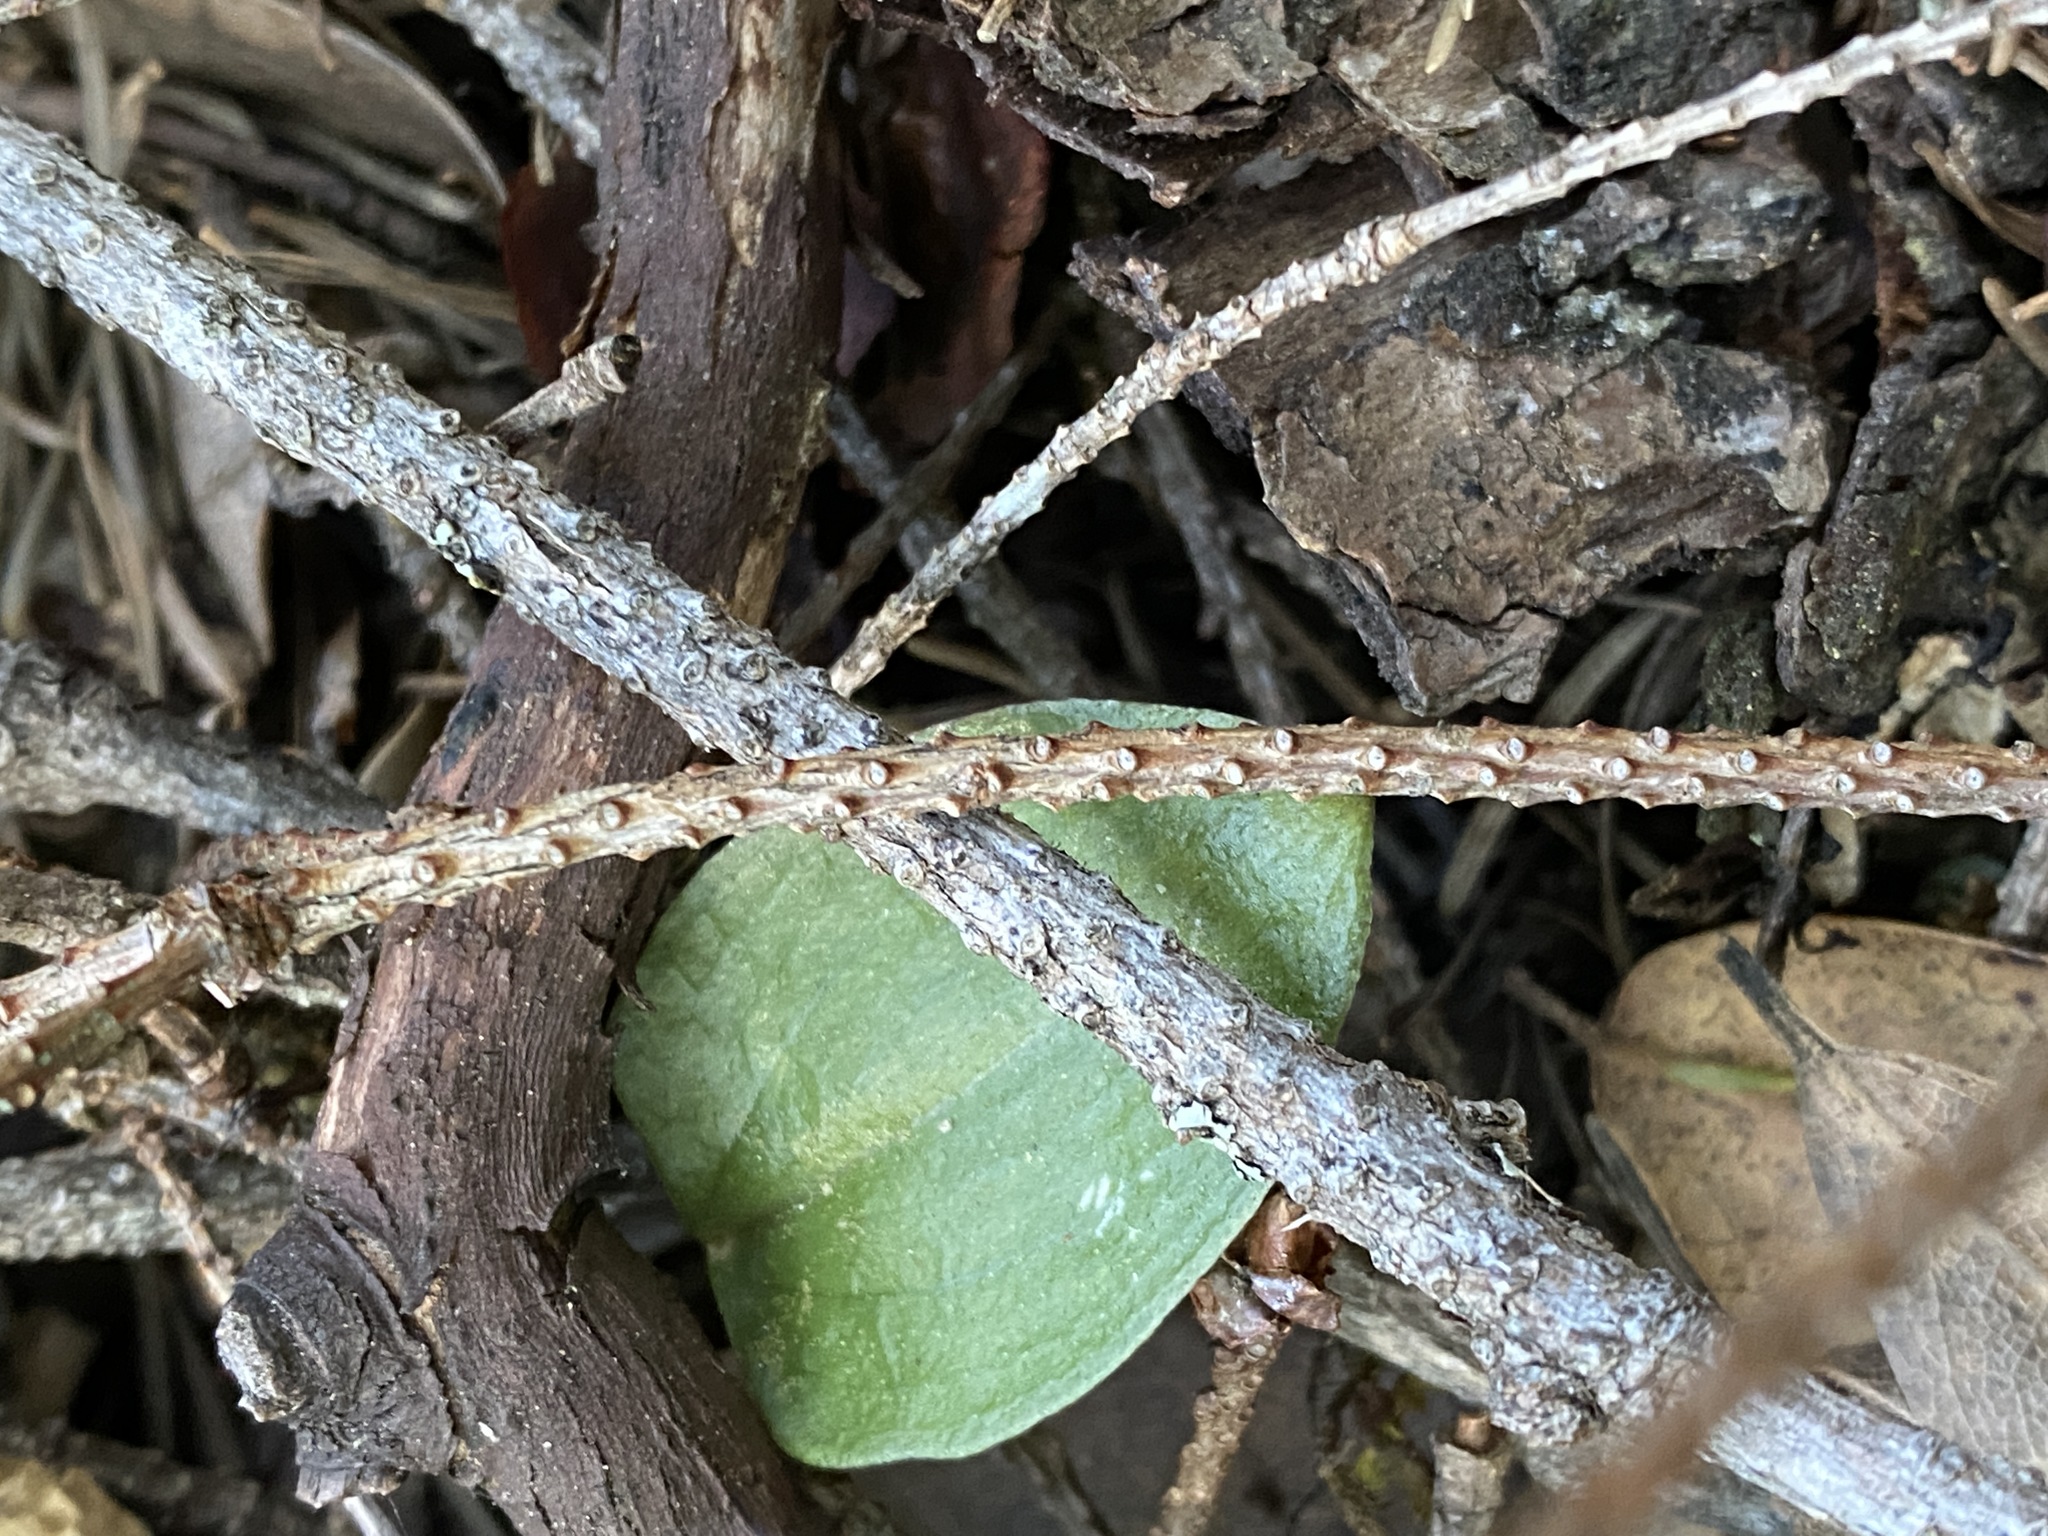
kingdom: Plantae
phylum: Tracheophyta
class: Liliopsida
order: Asparagales
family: Orchidaceae
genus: Calypso
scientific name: Calypso bulbosa
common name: Calypso
